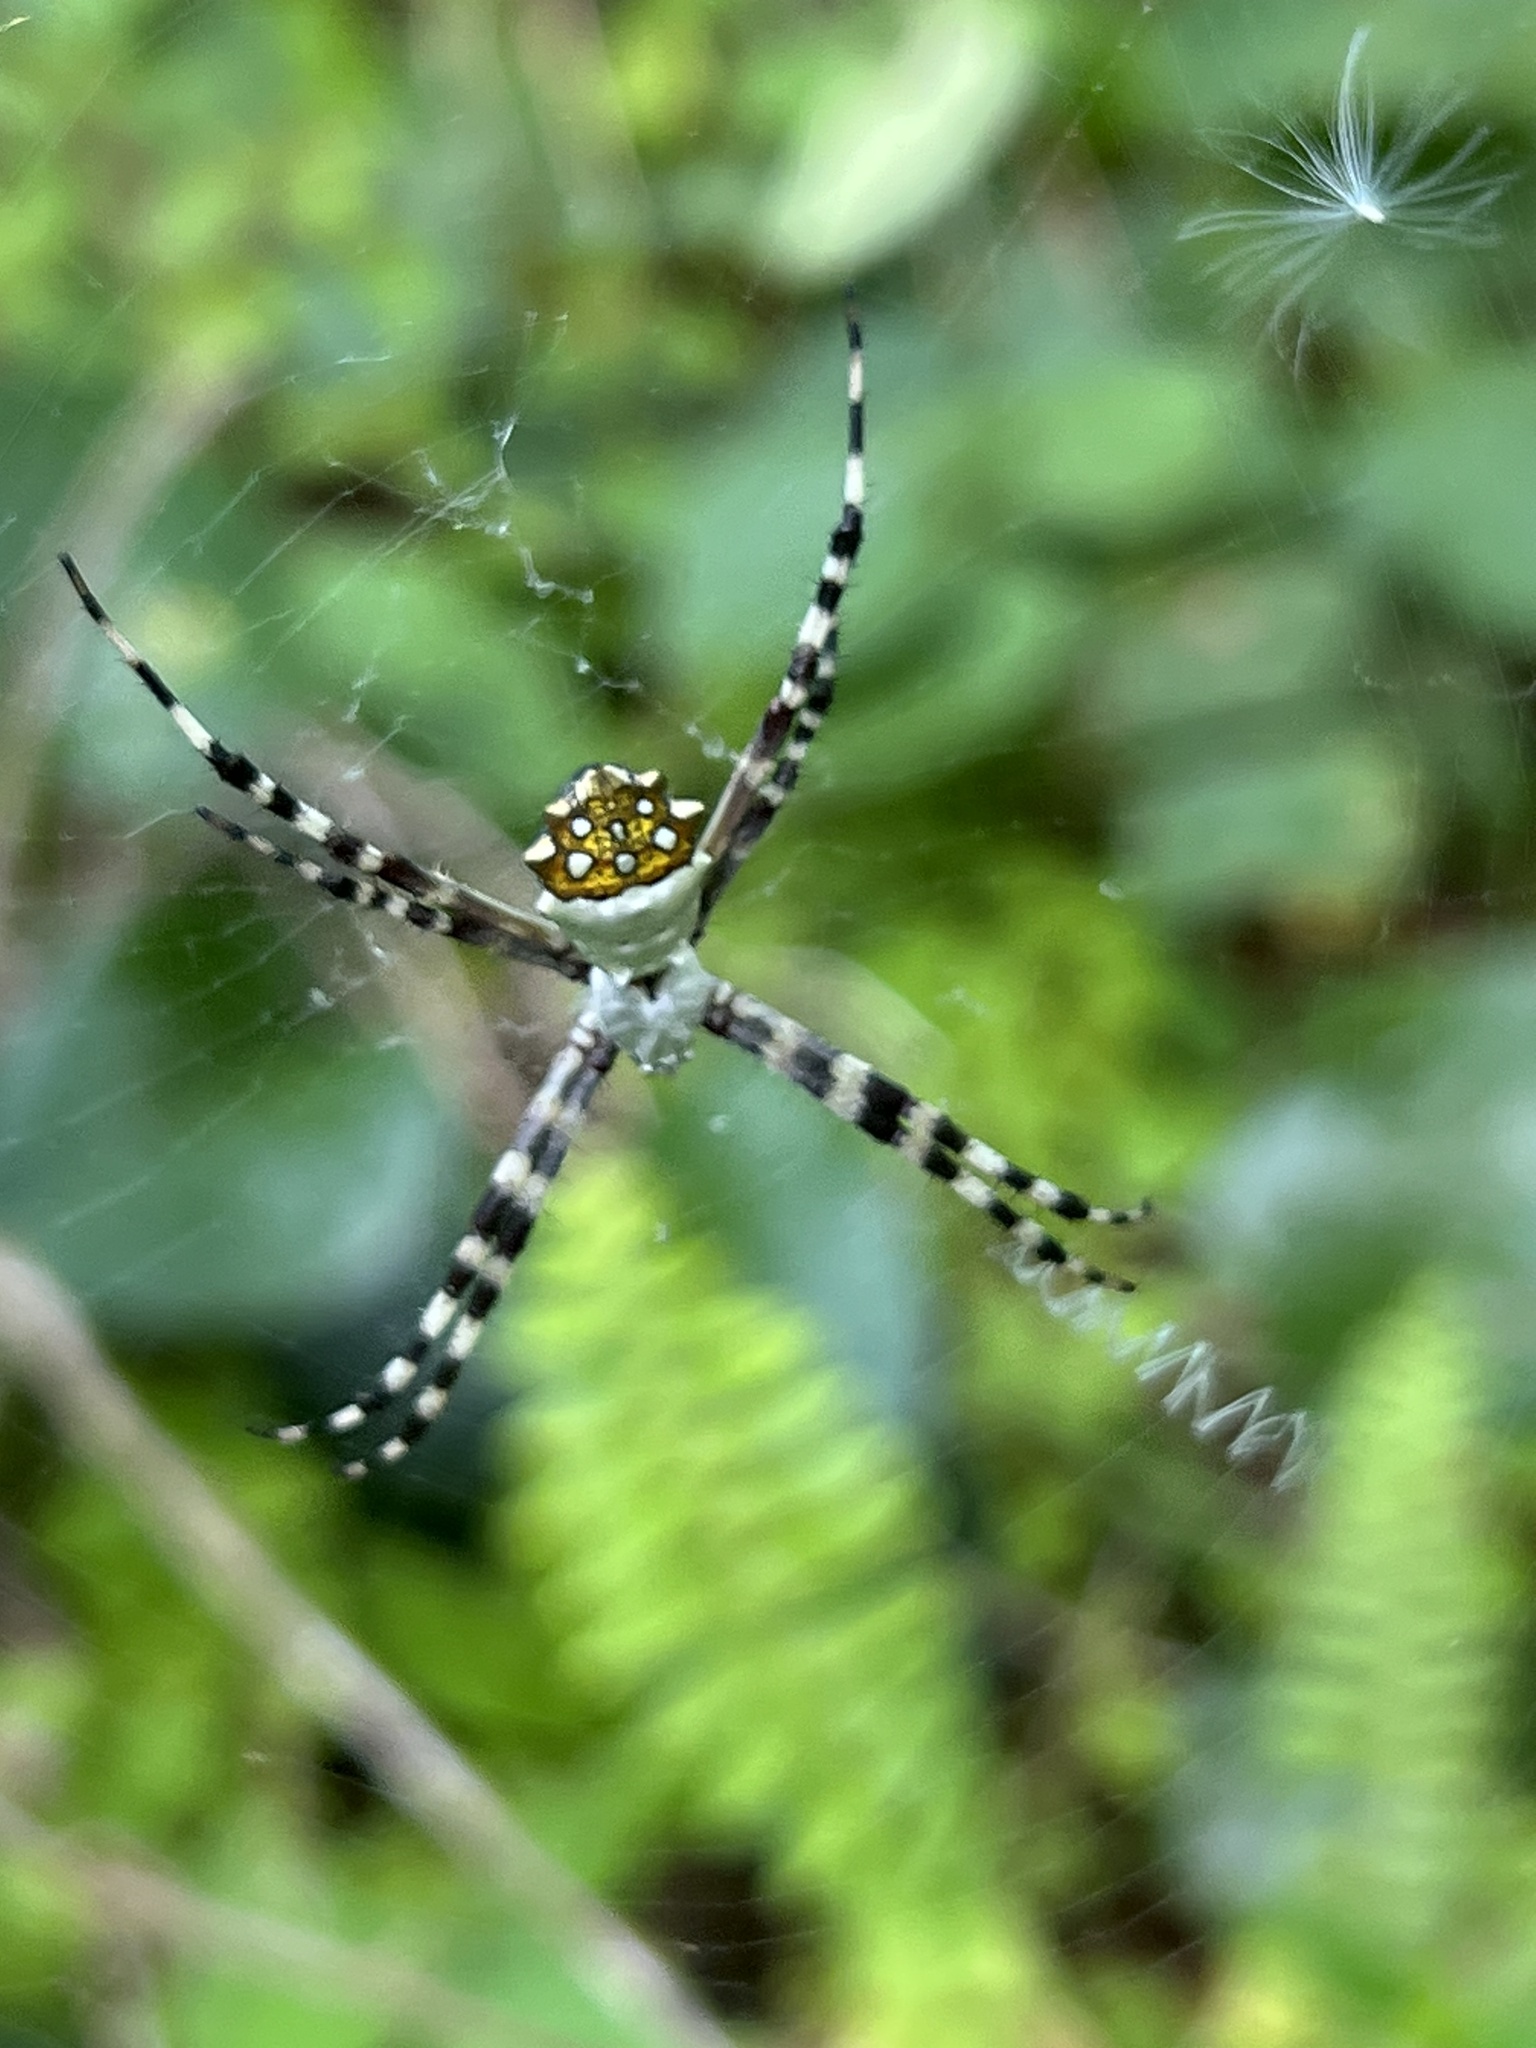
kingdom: Animalia
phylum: Arthropoda
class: Arachnida
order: Araneae
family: Araneidae
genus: Argiope
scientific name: Argiope argentata
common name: Orb weavers
